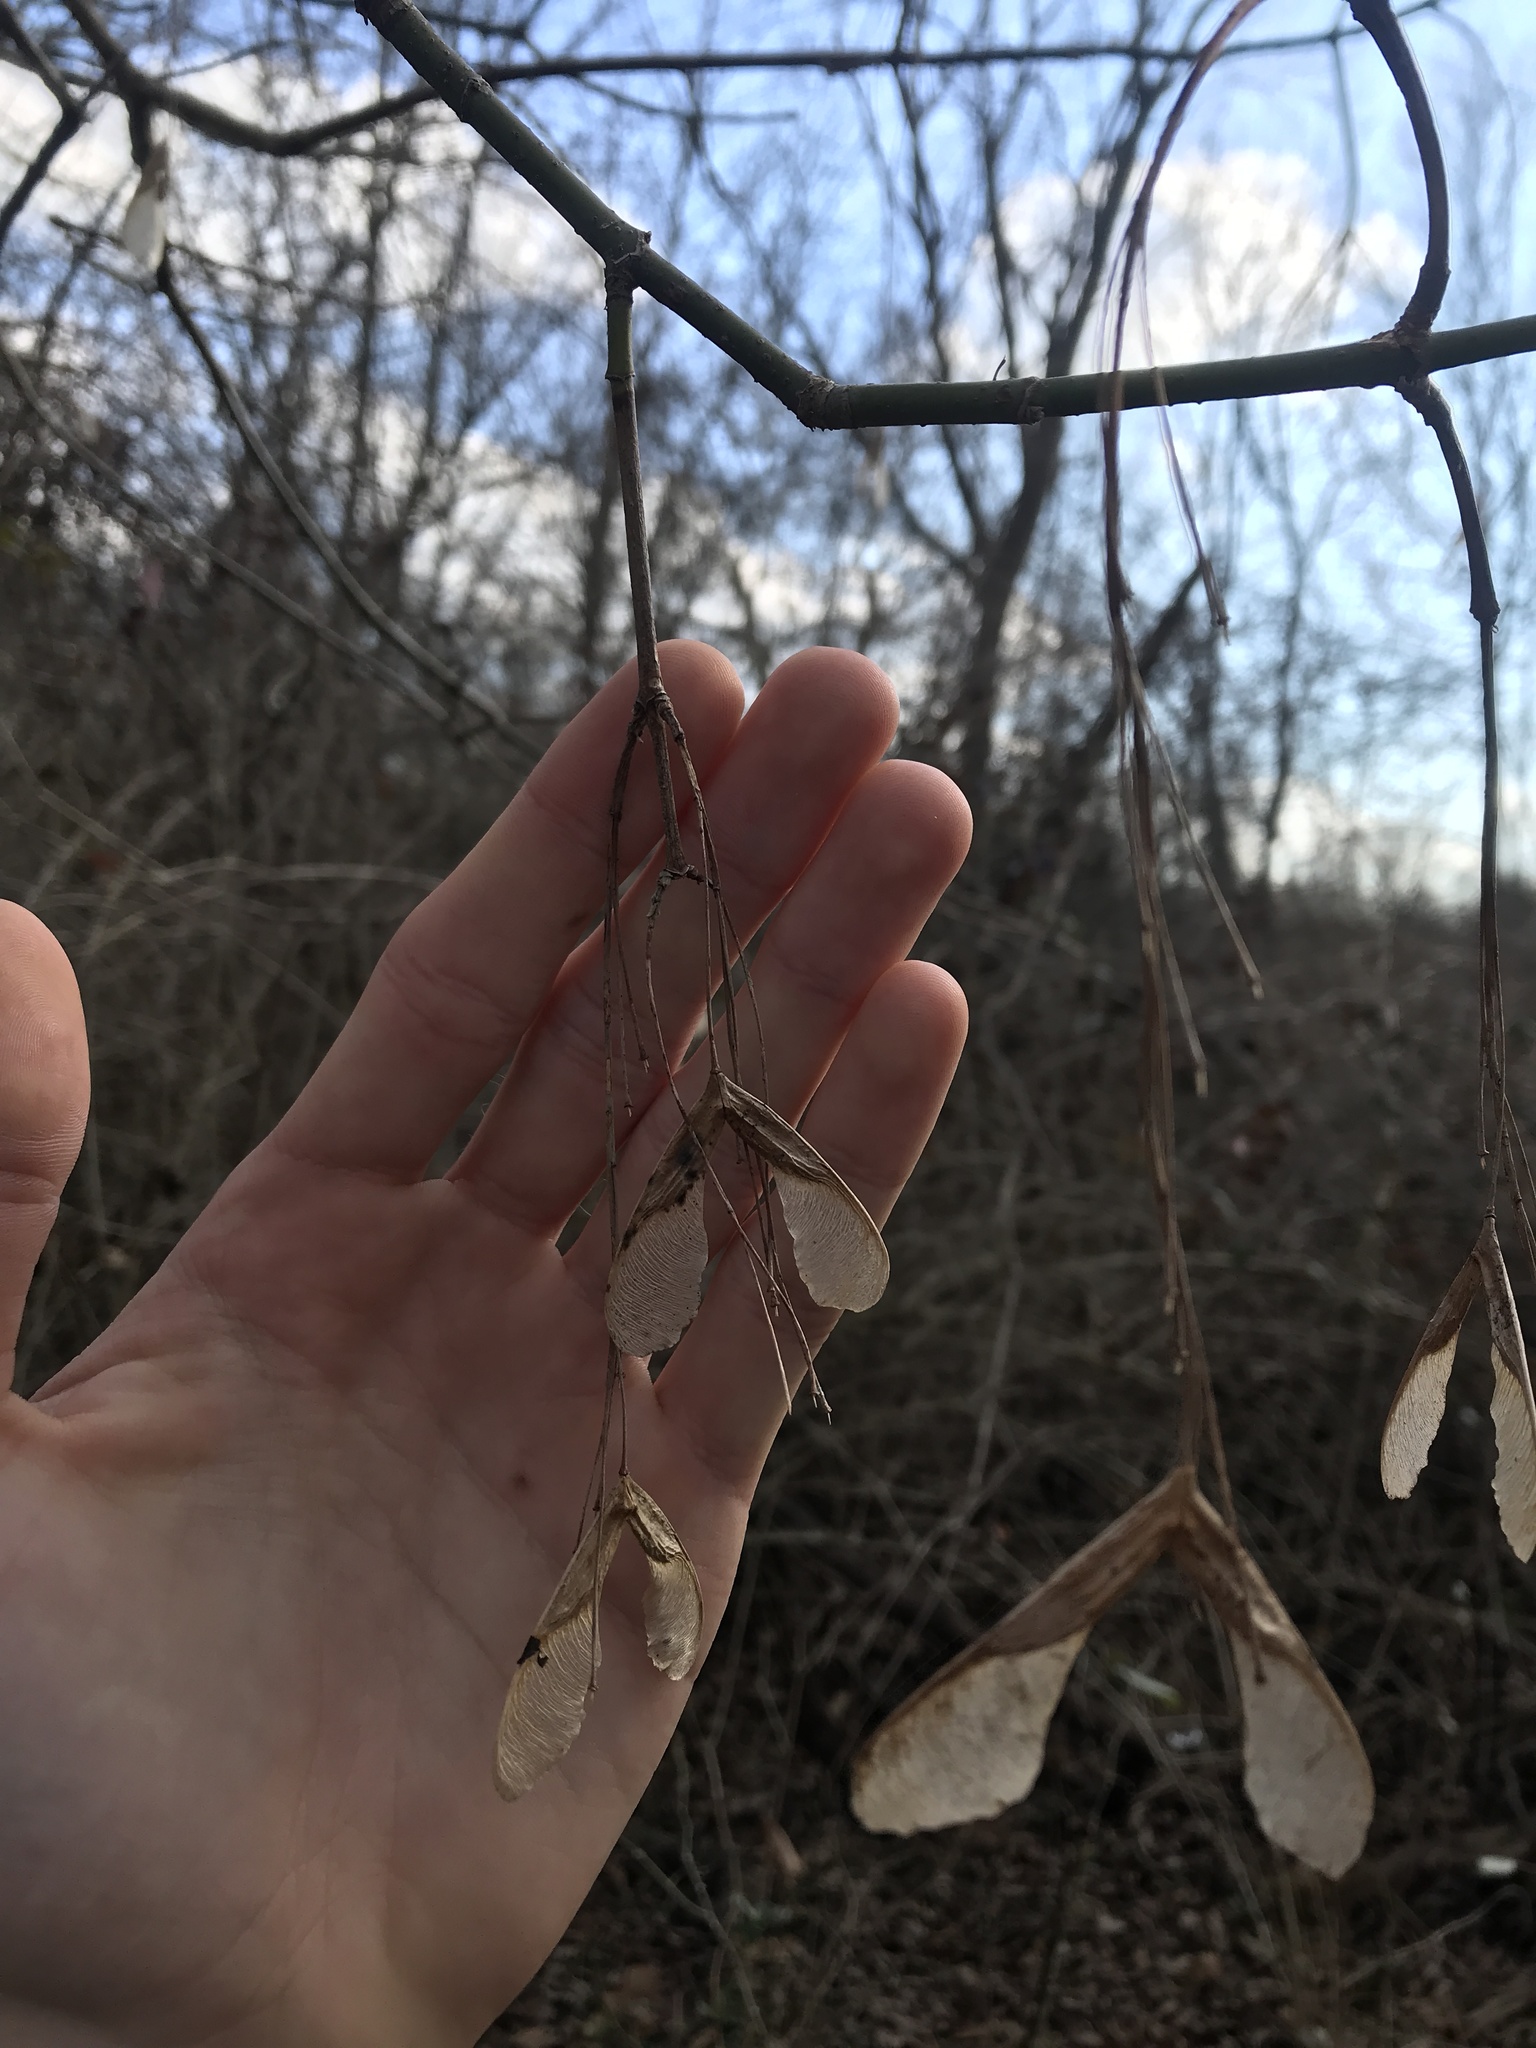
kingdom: Plantae
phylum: Tracheophyta
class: Magnoliopsida
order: Sapindales
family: Sapindaceae
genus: Acer
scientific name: Acer negundo
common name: Ashleaf maple
